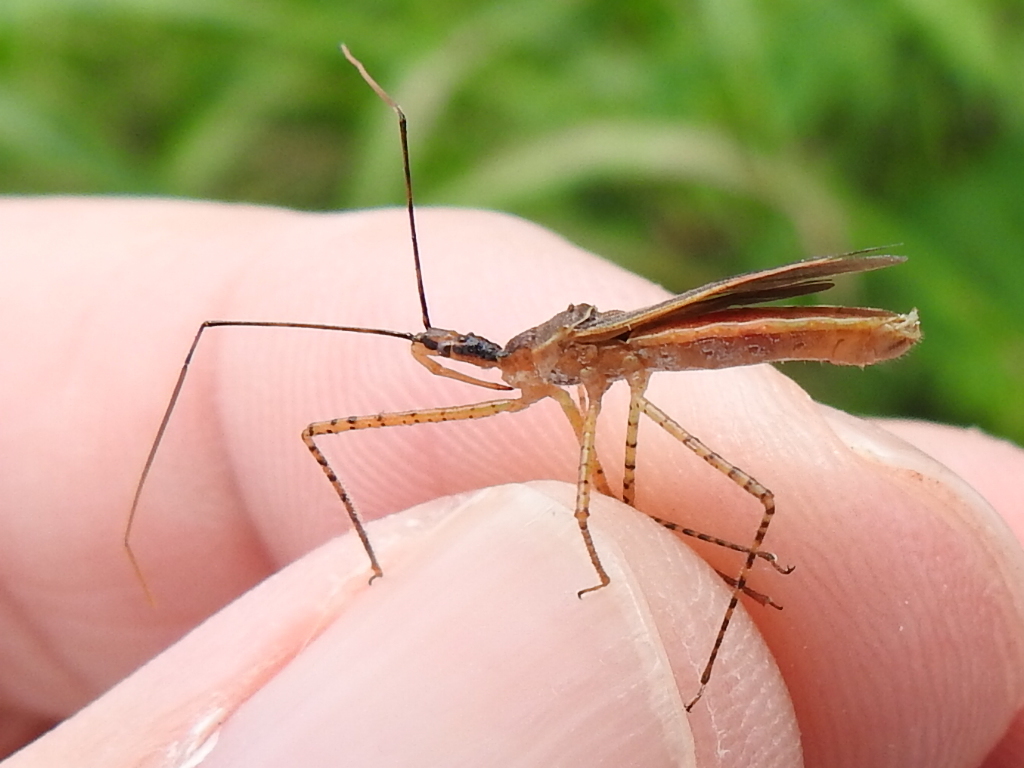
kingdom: Animalia
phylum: Arthropoda
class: Insecta
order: Hemiptera
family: Reduviidae
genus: Zelus
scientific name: Zelus cervicalis
